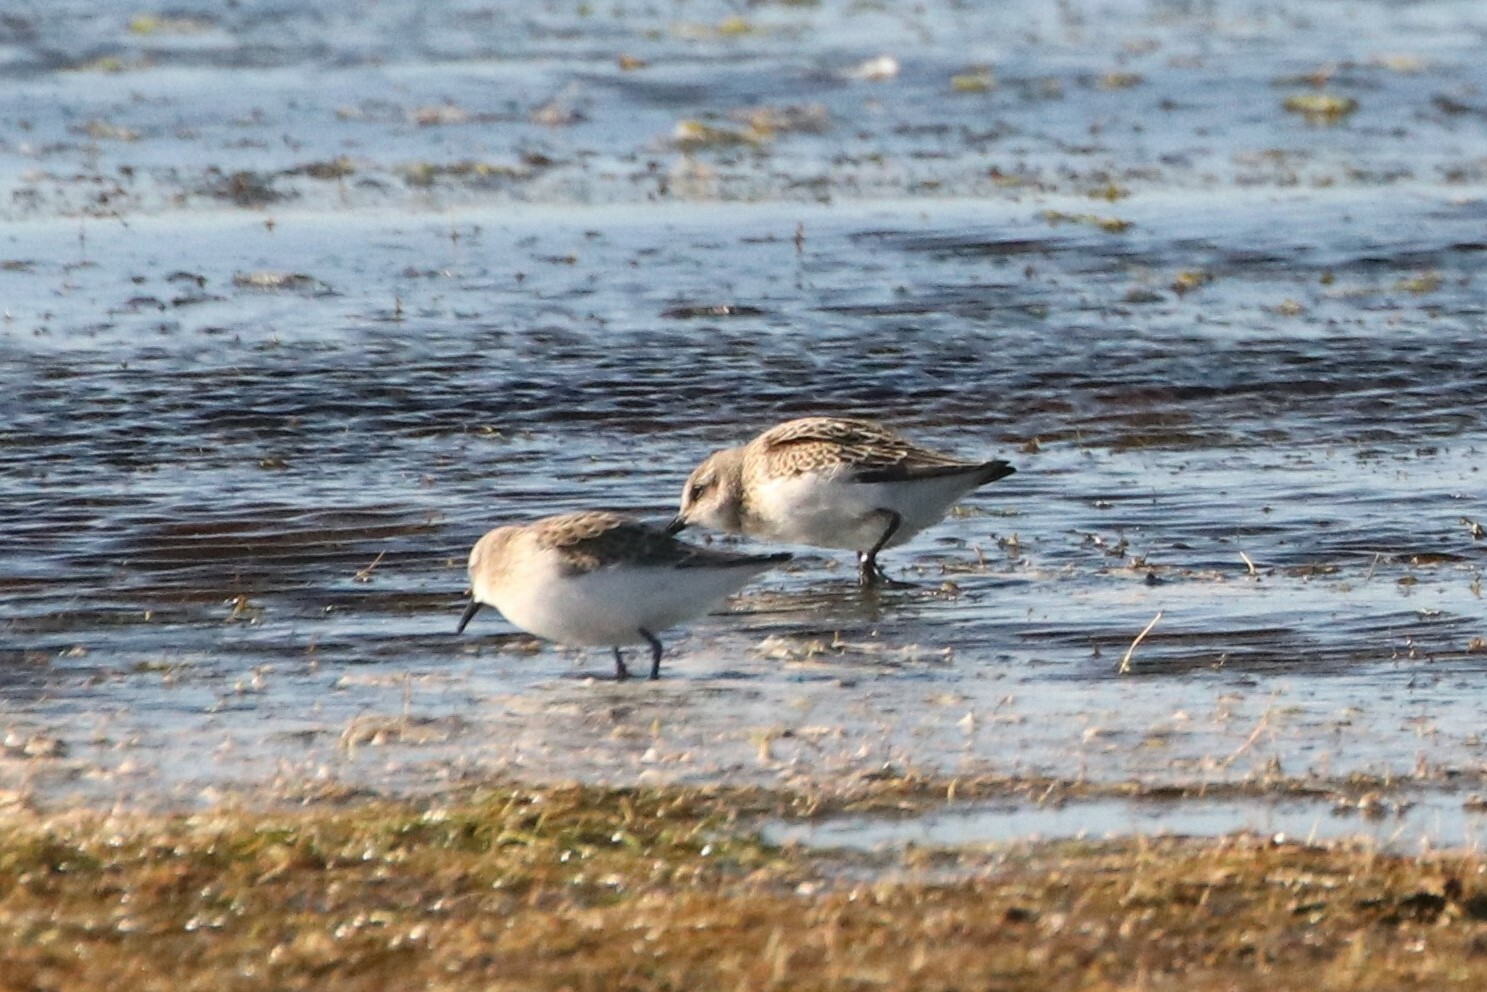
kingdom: Animalia
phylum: Chordata
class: Aves
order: Charadriiformes
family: Scolopacidae
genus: Calidris
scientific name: Calidris pusilla
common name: Semipalmated sandpiper
